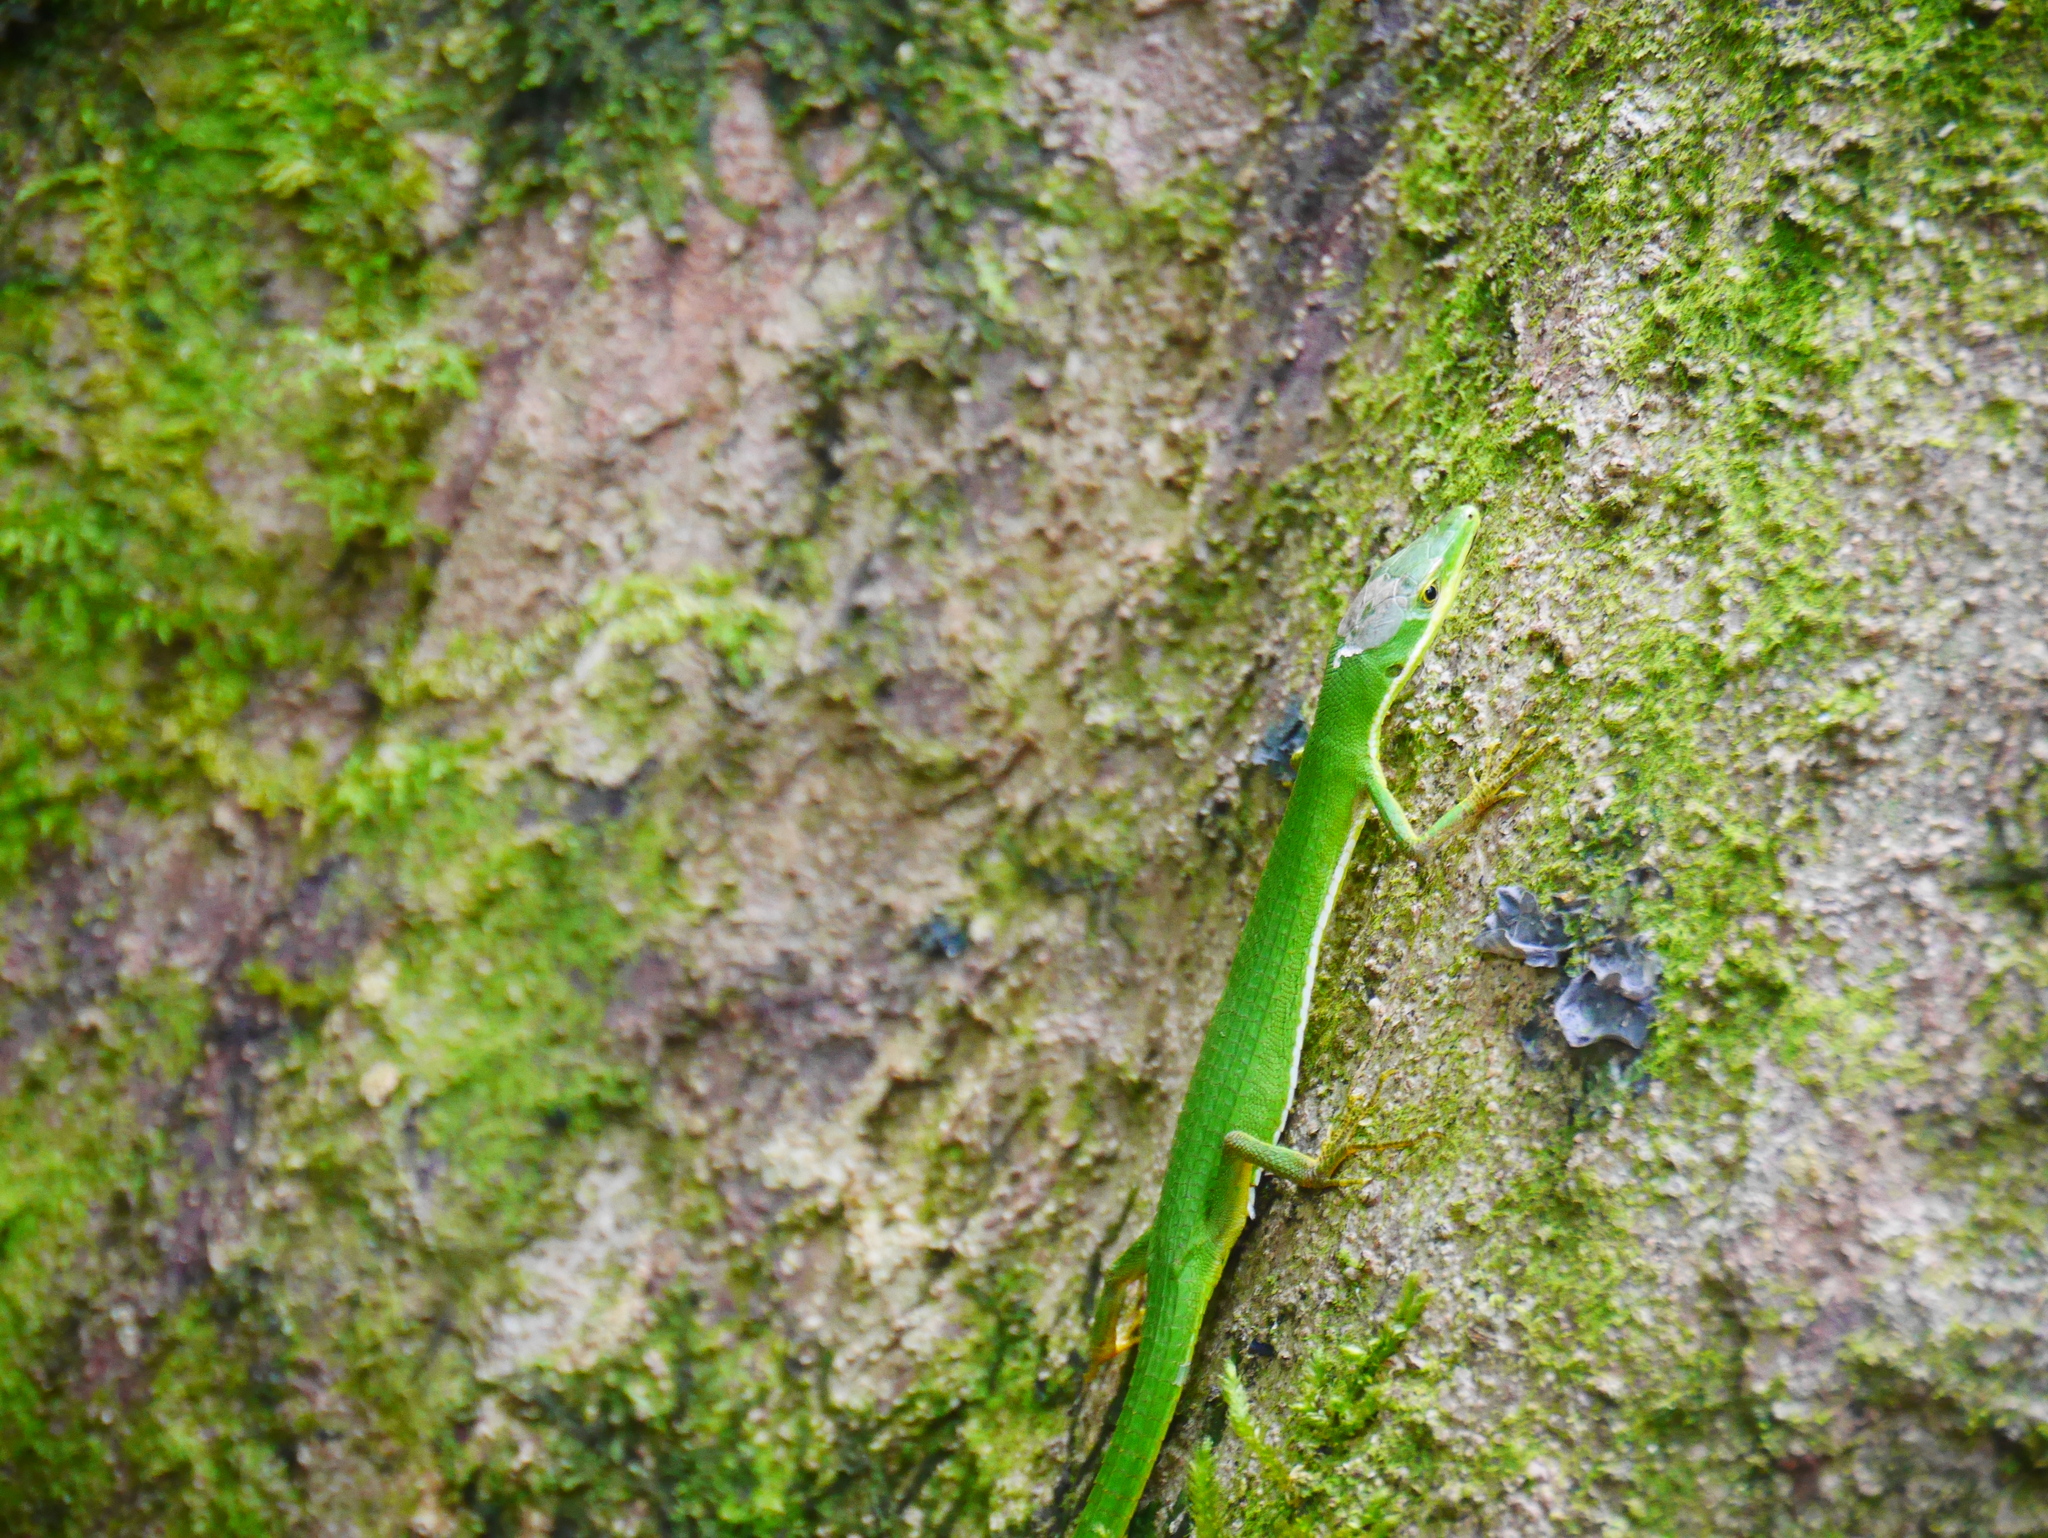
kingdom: Animalia
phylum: Chordata
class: Squamata
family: Lacertidae
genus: Takydromus
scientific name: Takydromus sauteri
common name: Koshun grass lizard
